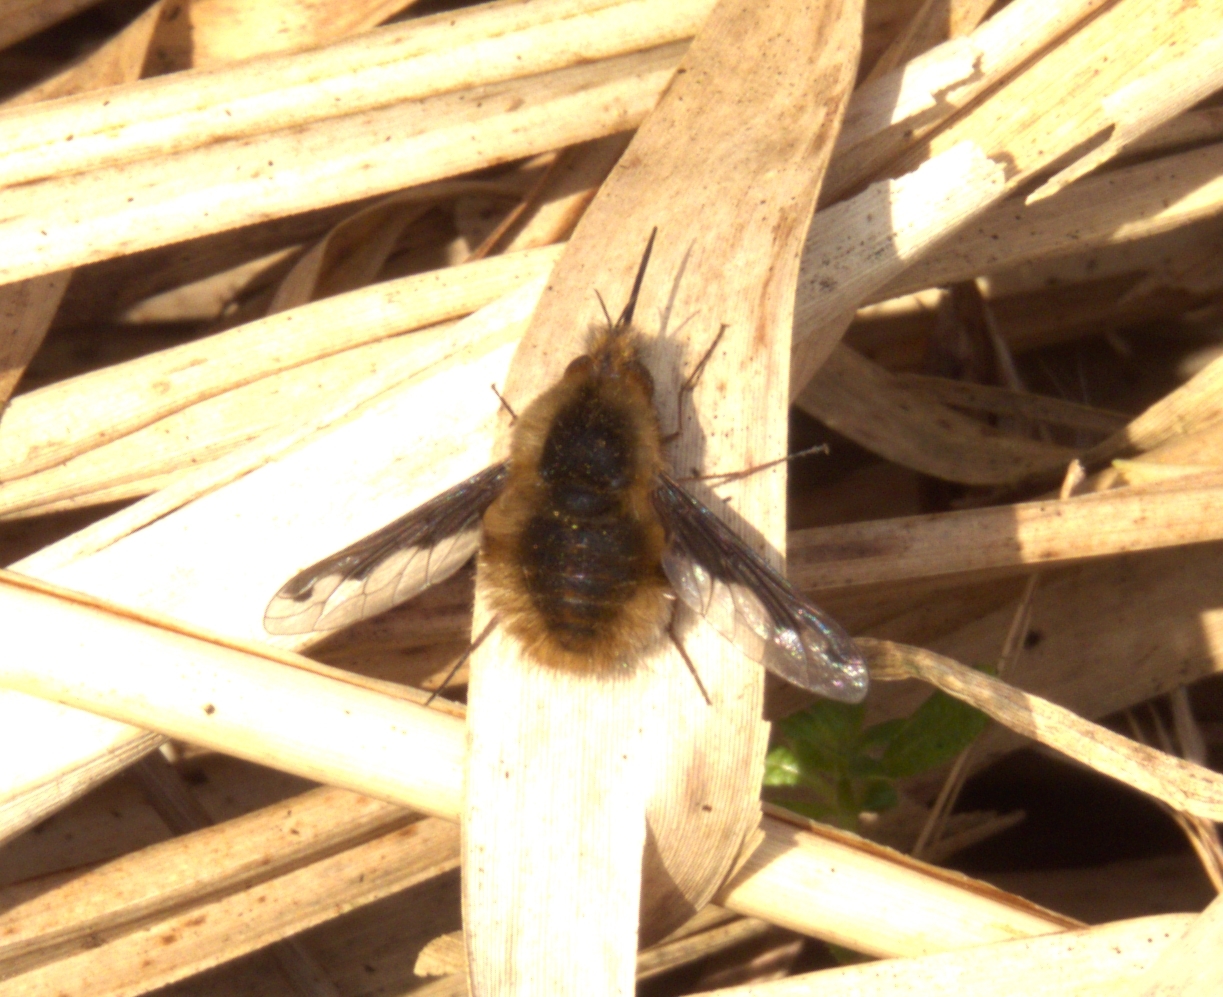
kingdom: Animalia
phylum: Arthropoda
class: Insecta
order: Diptera
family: Bombyliidae
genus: Bombylius
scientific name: Bombylius major
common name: Bee fly
